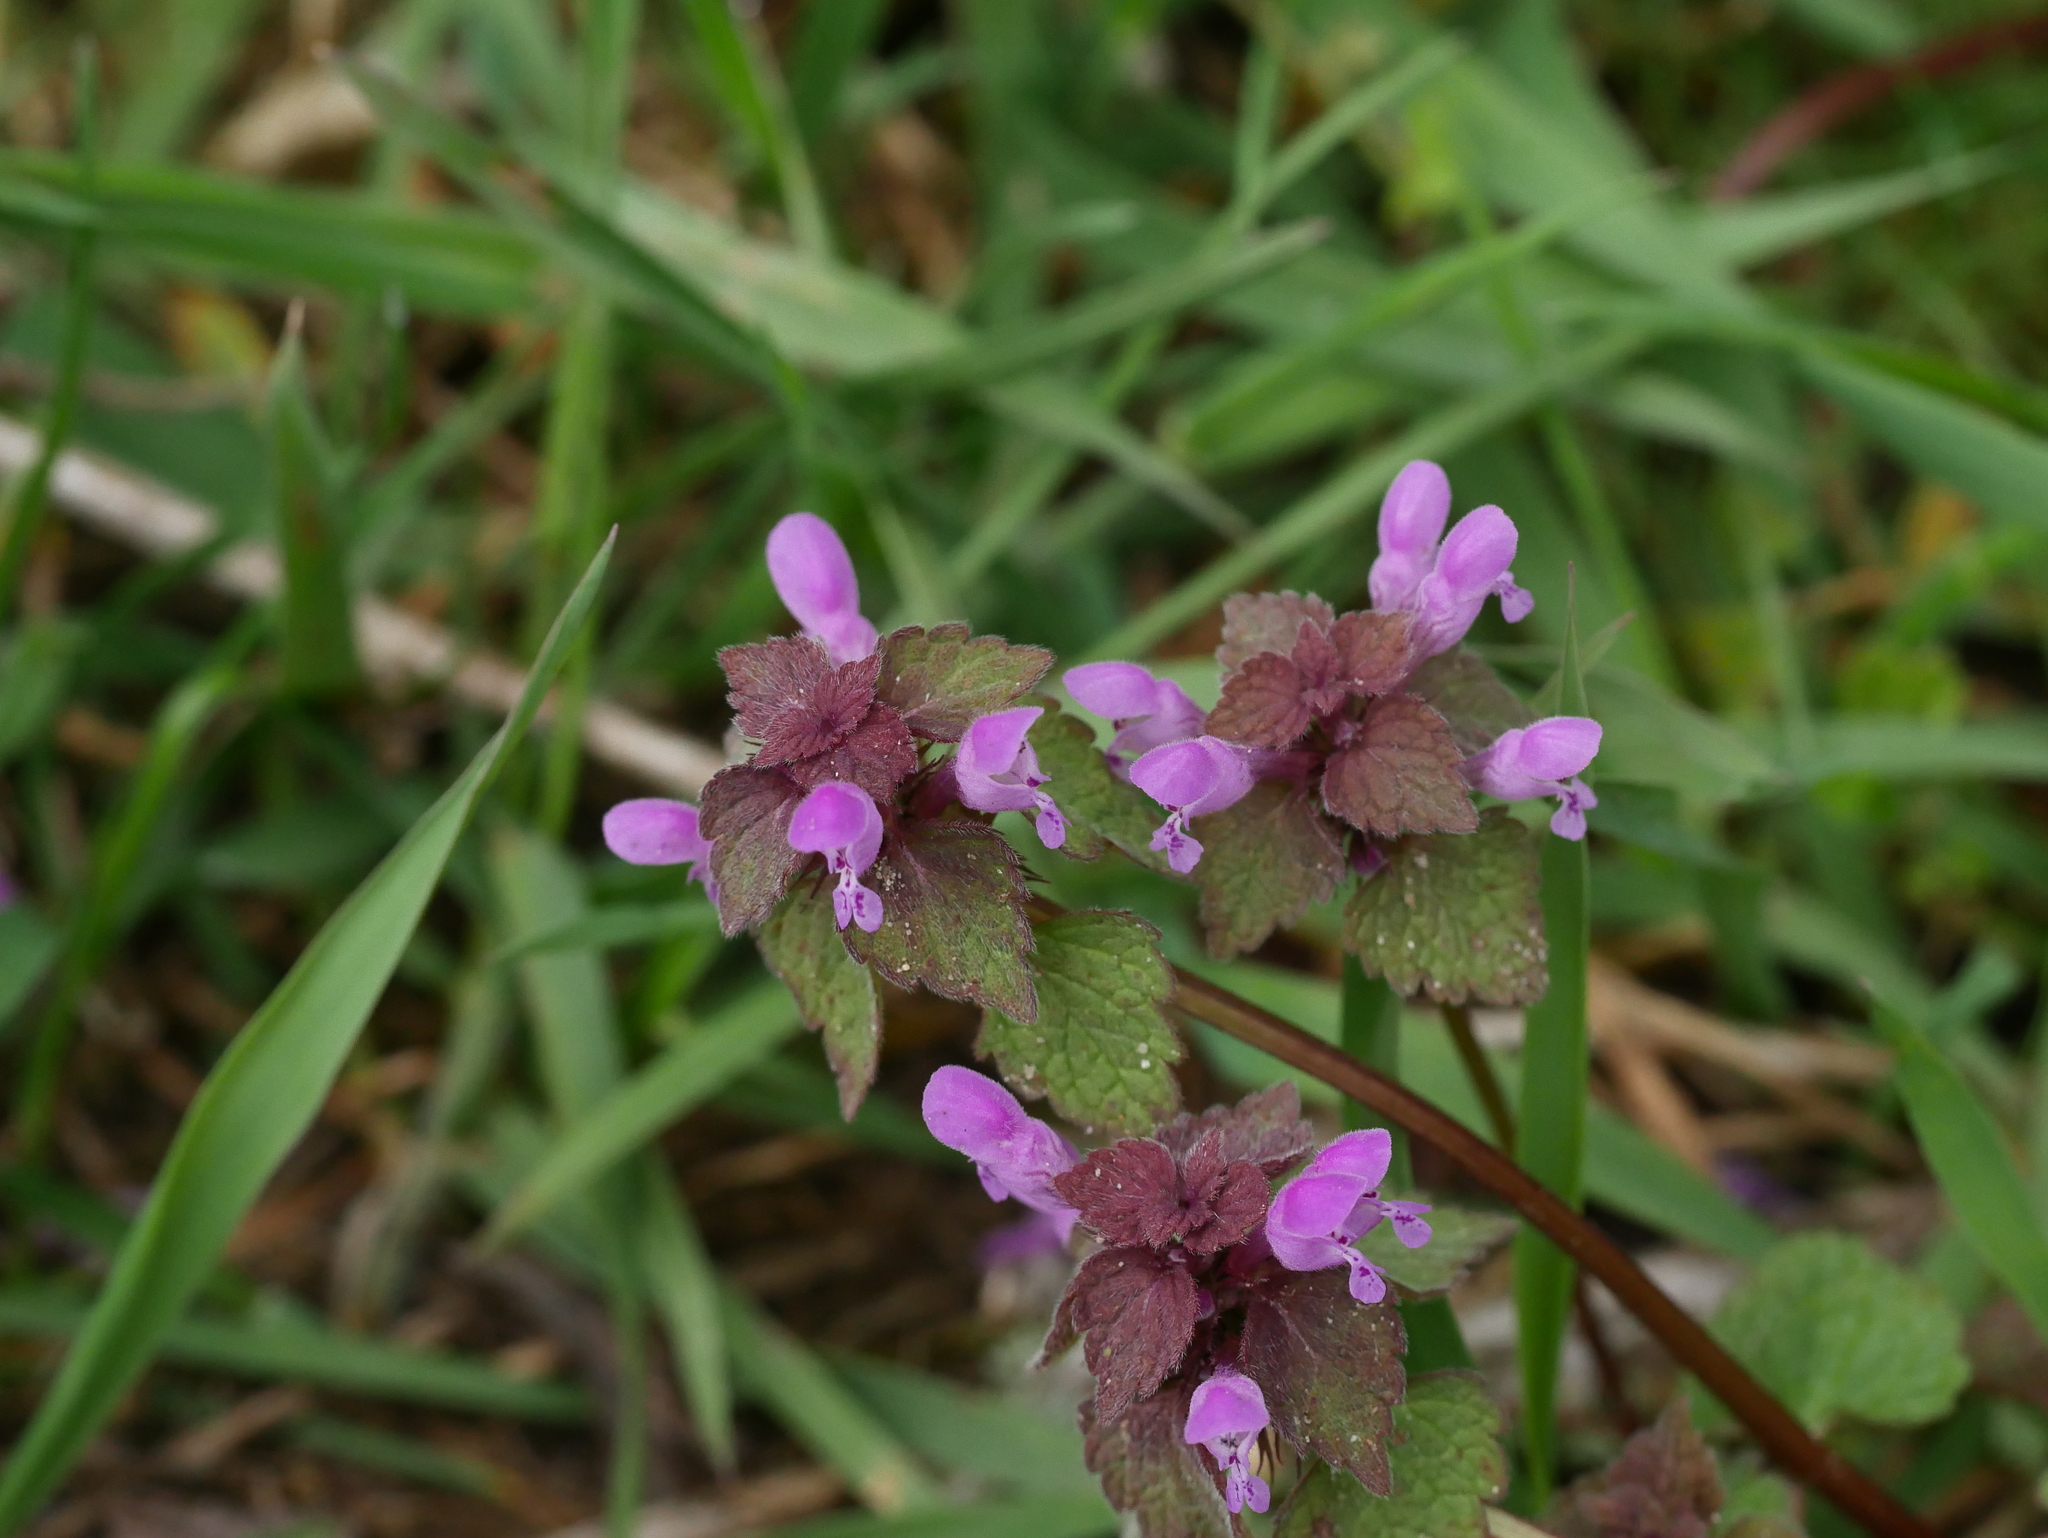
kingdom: Plantae
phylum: Tracheophyta
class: Magnoliopsida
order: Lamiales
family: Lamiaceae
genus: Lamium
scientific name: Lamium purpureum
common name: Red dead-nettle
